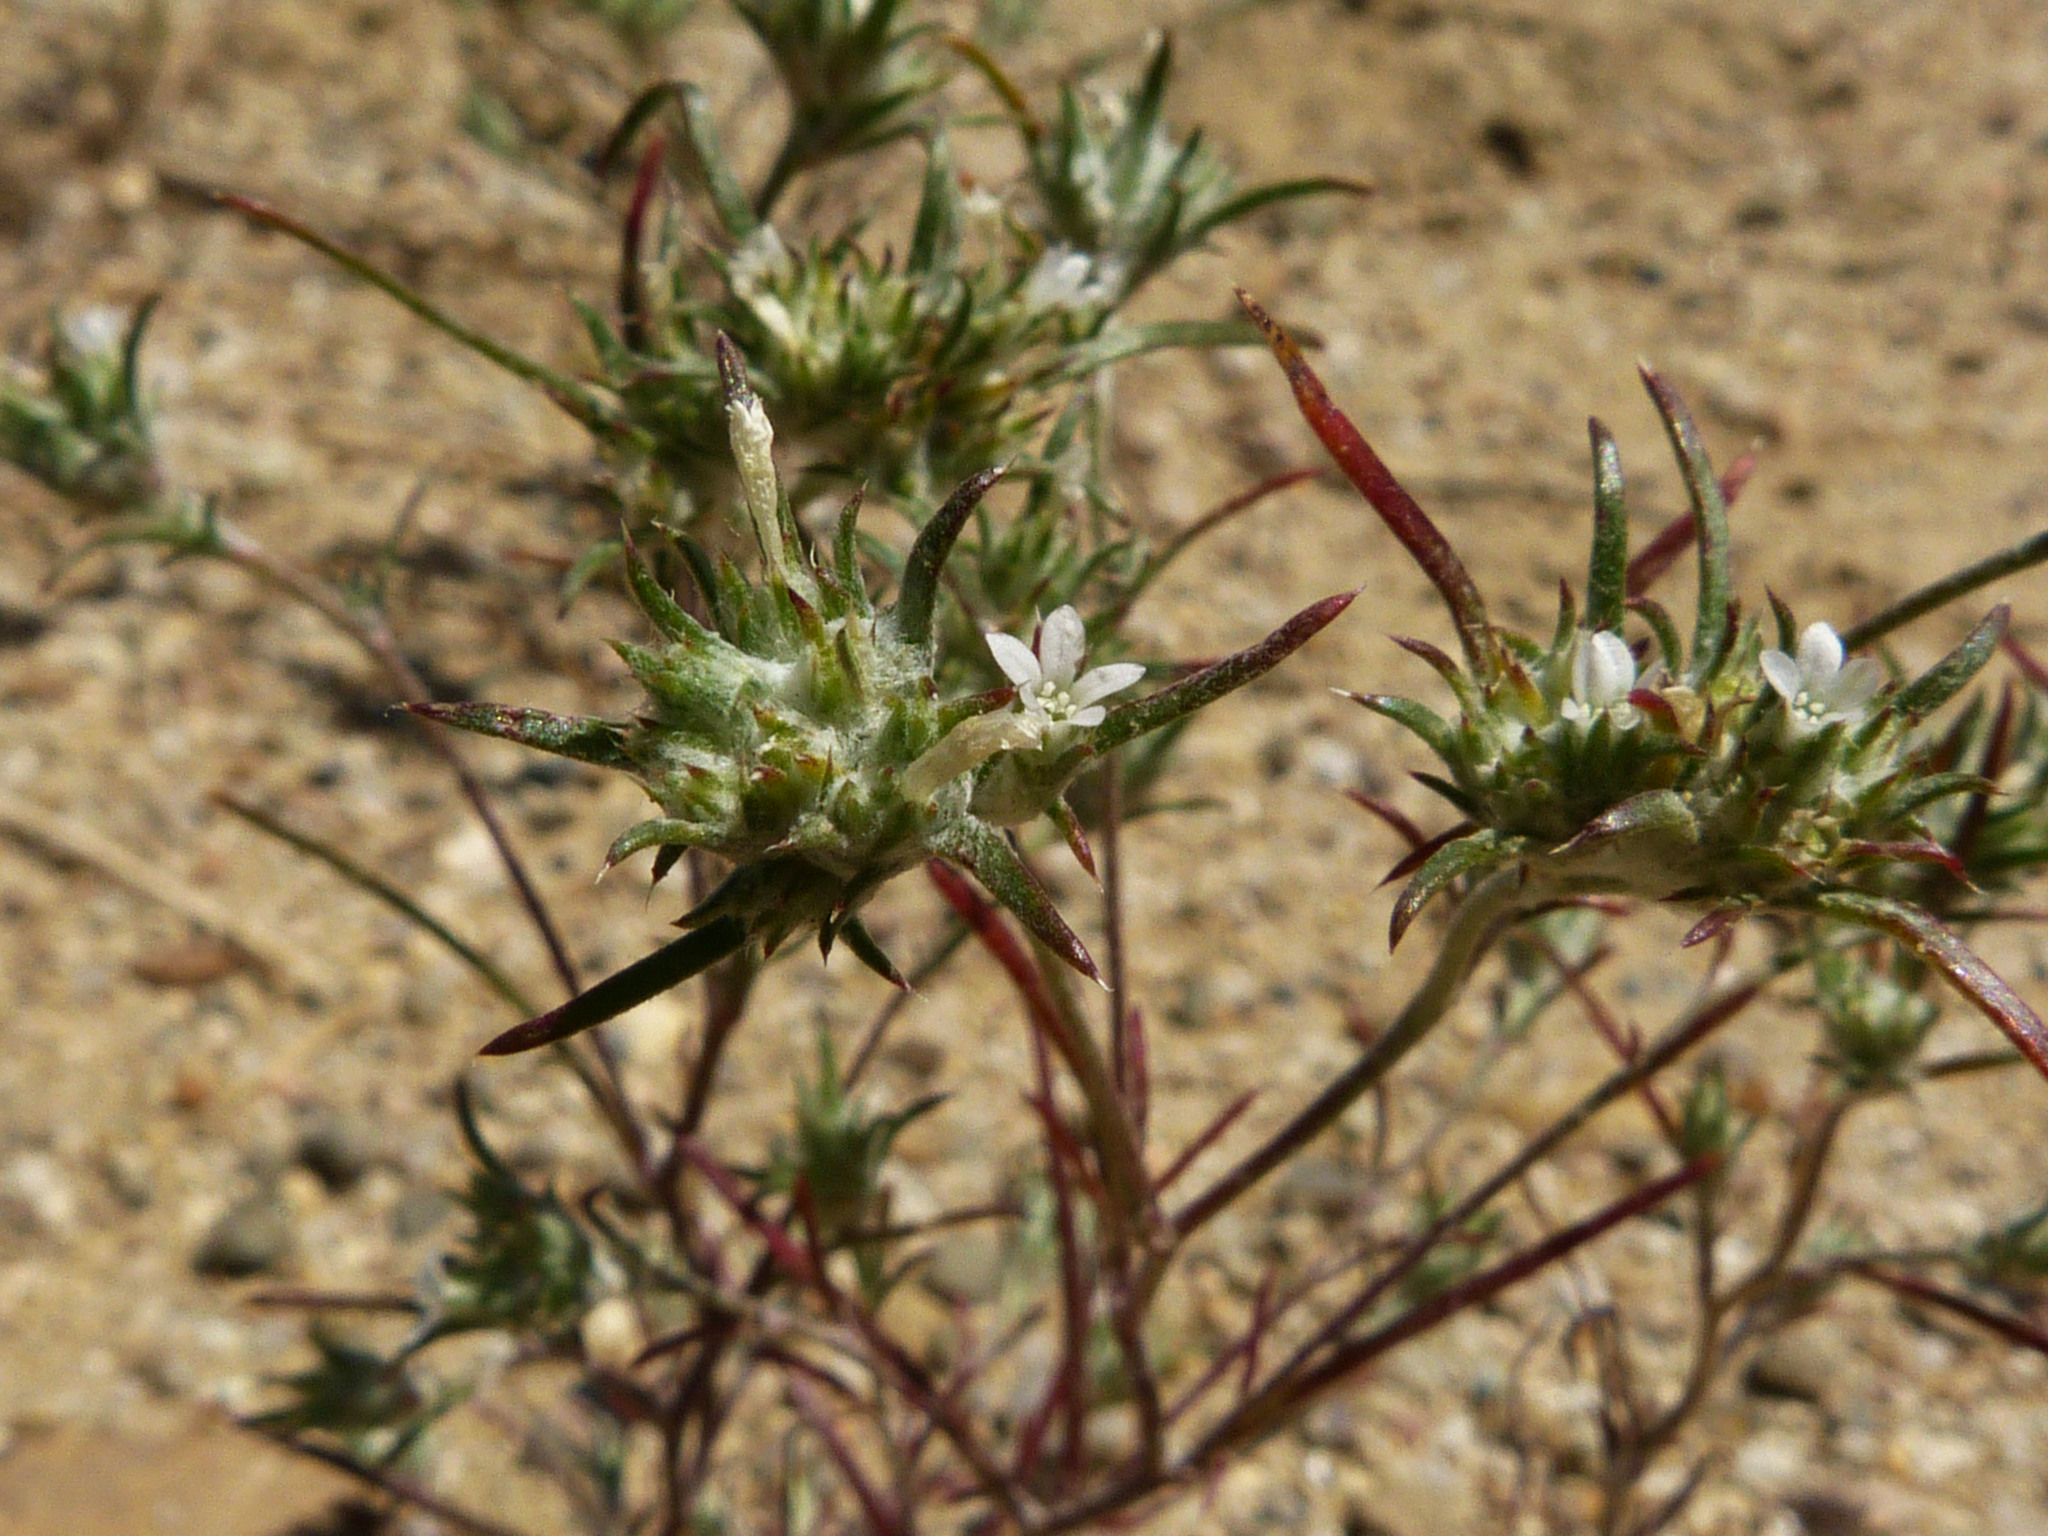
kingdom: Plantae
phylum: Tracheophyta
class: Magnoliopsida
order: Ericales
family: Polemoniaceae
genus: Eriastrum
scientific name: Eriastrum hooveri
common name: Hoover's woolly-star
